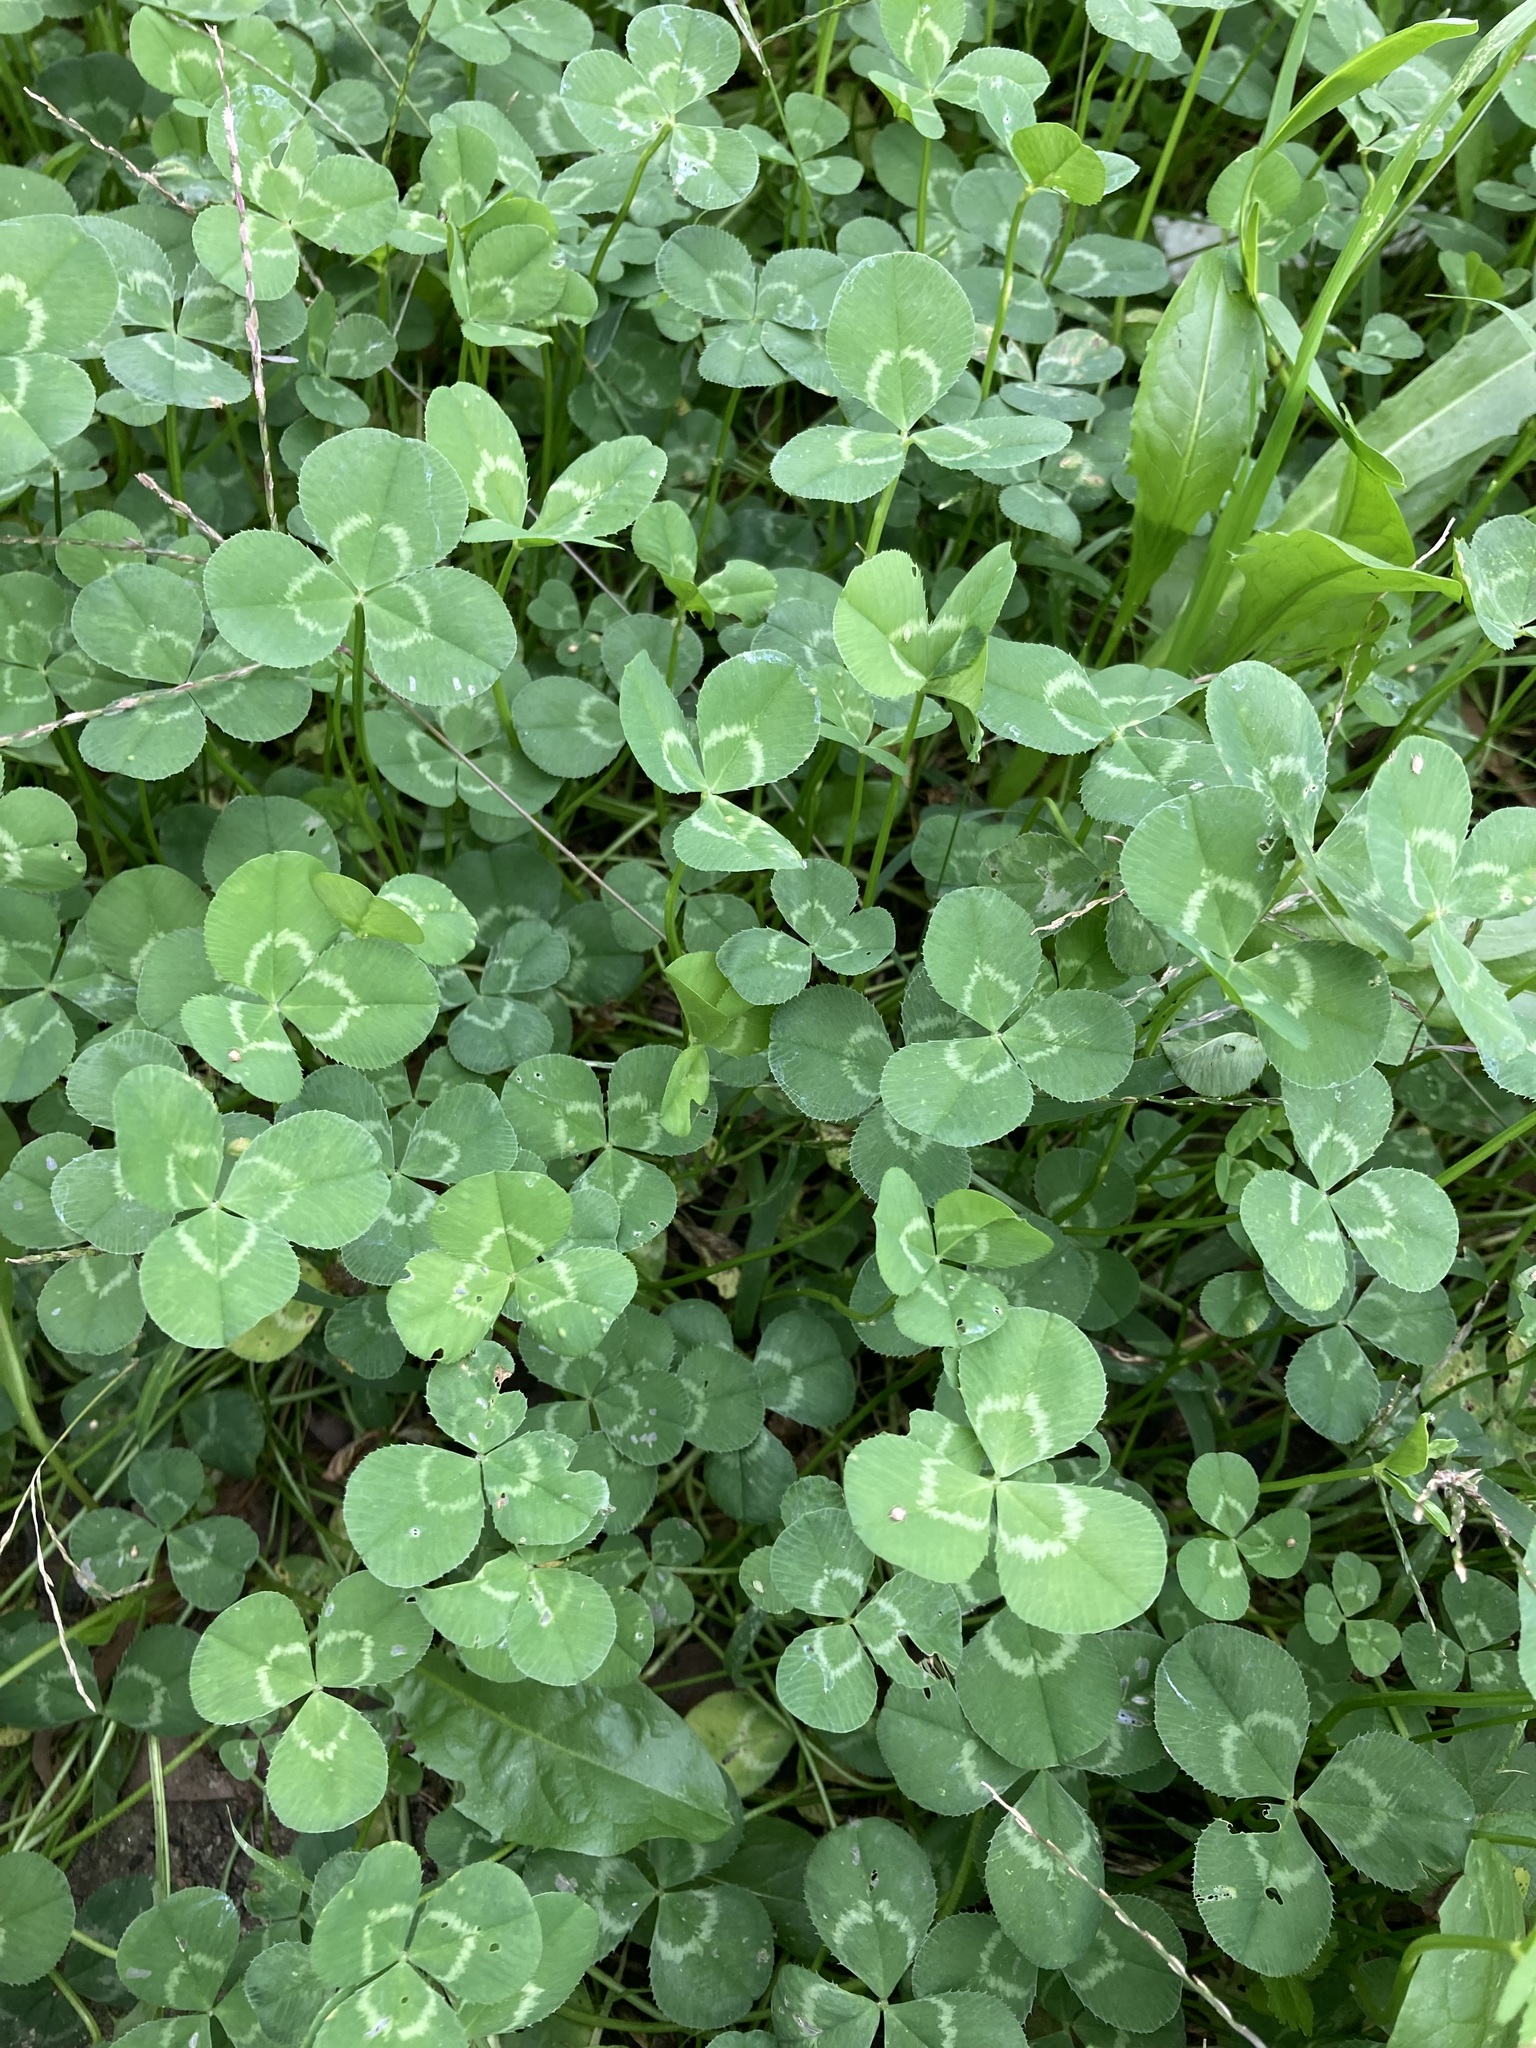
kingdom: Plantae
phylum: Tracheophyta
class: Magnoliopsida
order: Fabales
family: Fabaceae
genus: Trifolium
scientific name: Trifolium repens
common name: White clover
